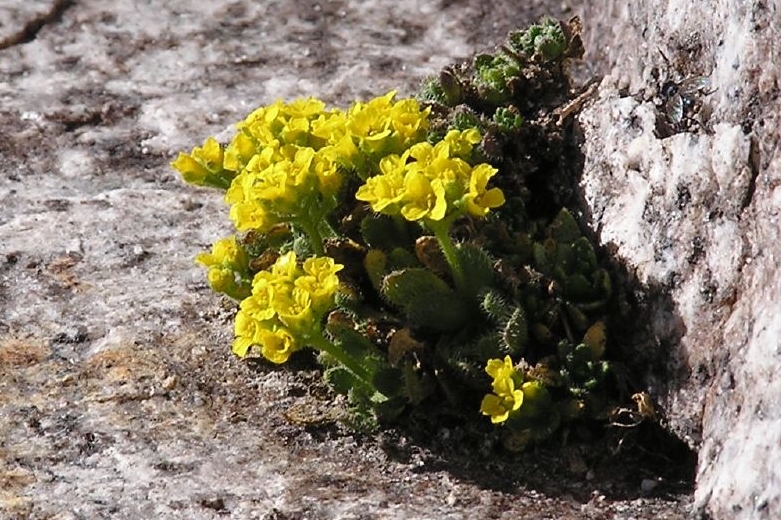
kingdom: Plantae
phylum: Tracheophyta
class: Magnoliopsida
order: Brassicales
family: Brassicaceae
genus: Draba
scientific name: Draba
